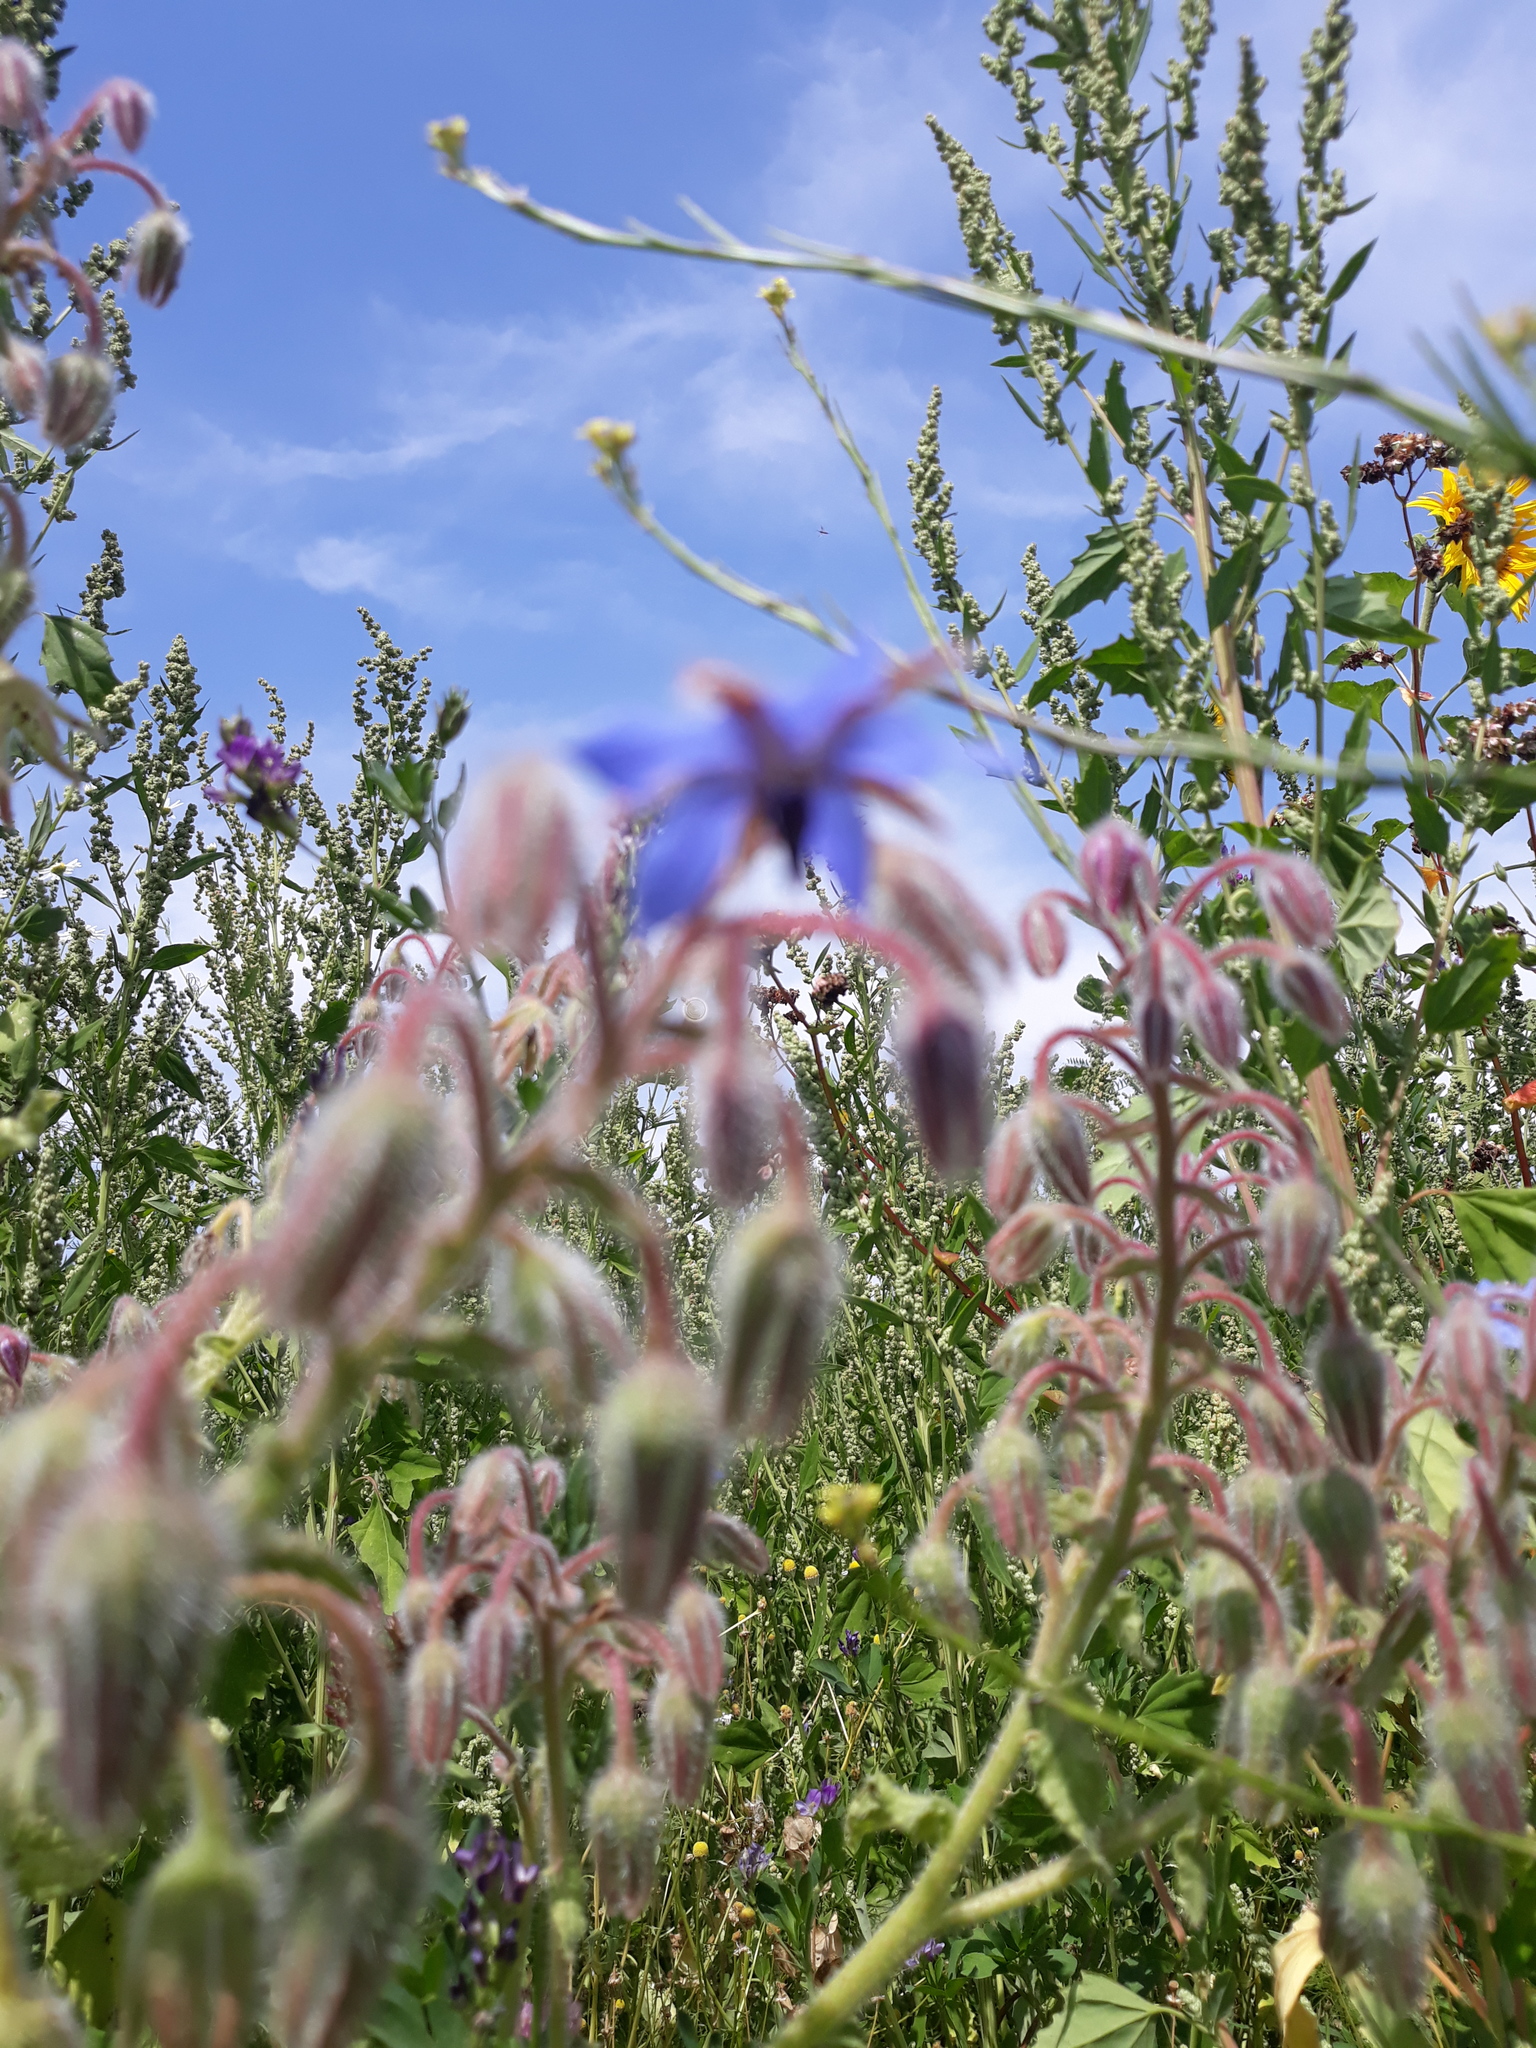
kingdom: Plantae
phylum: Tracheophyta
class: Magnoliopsida
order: Boraginales
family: Boraginaceae
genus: Borago
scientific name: Borago officinalis
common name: Borage
